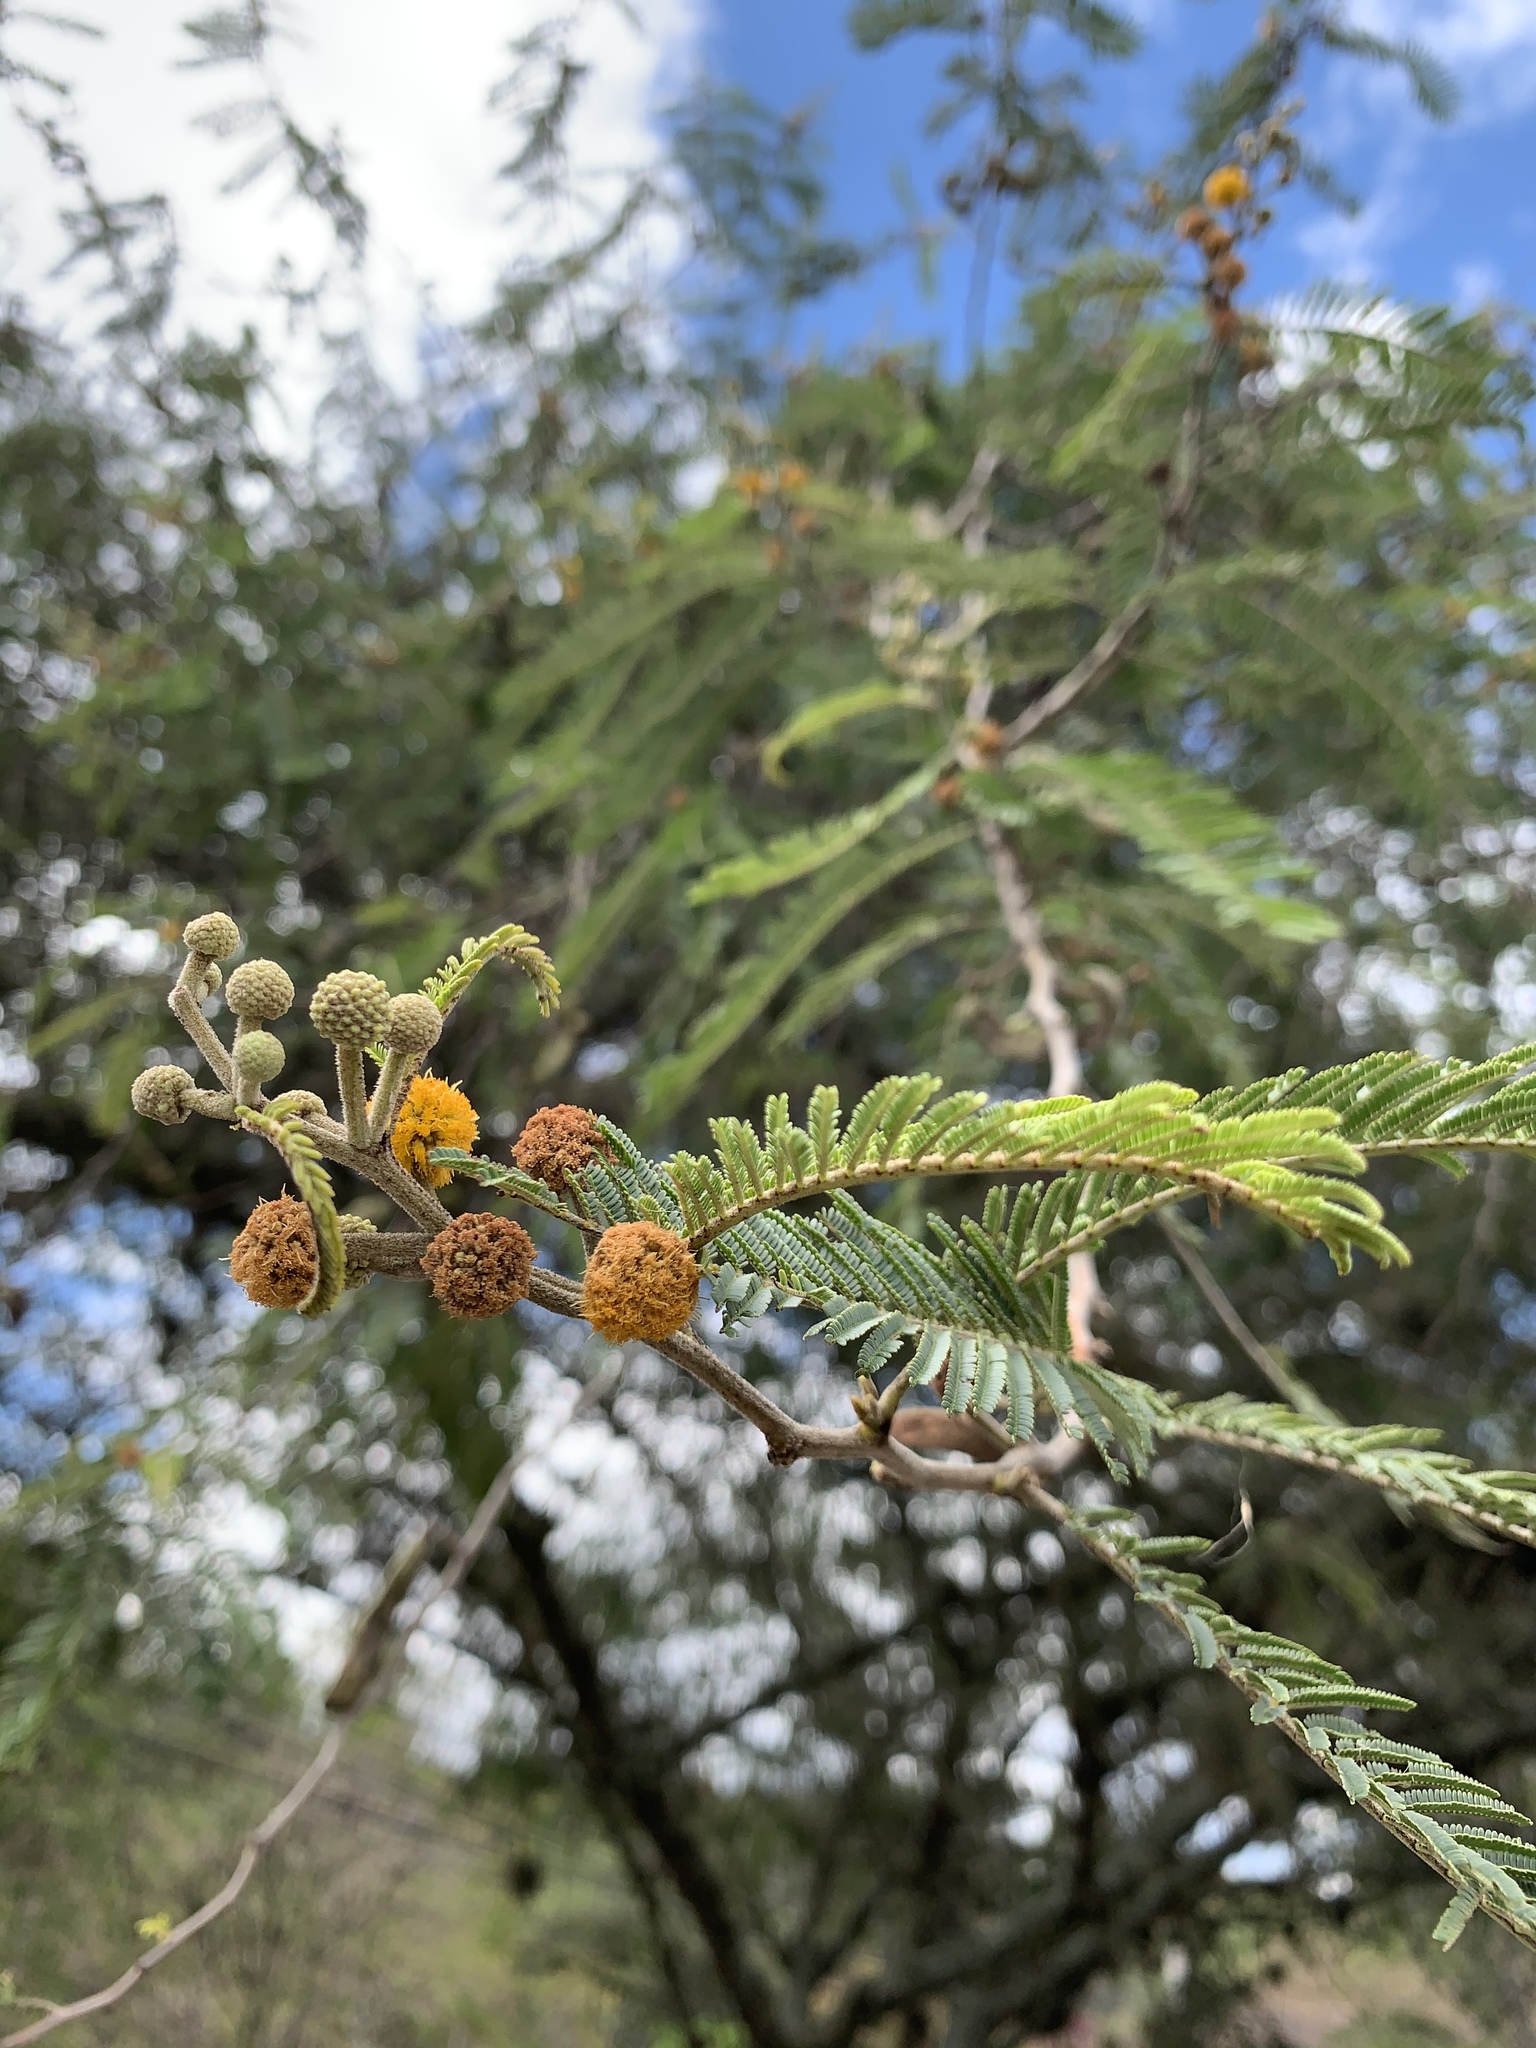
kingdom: Plantae
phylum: Tracheophyta
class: Magnoliopsida
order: Fabales
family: Fabaceae
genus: Vachellia
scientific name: Vachellia macracantha
